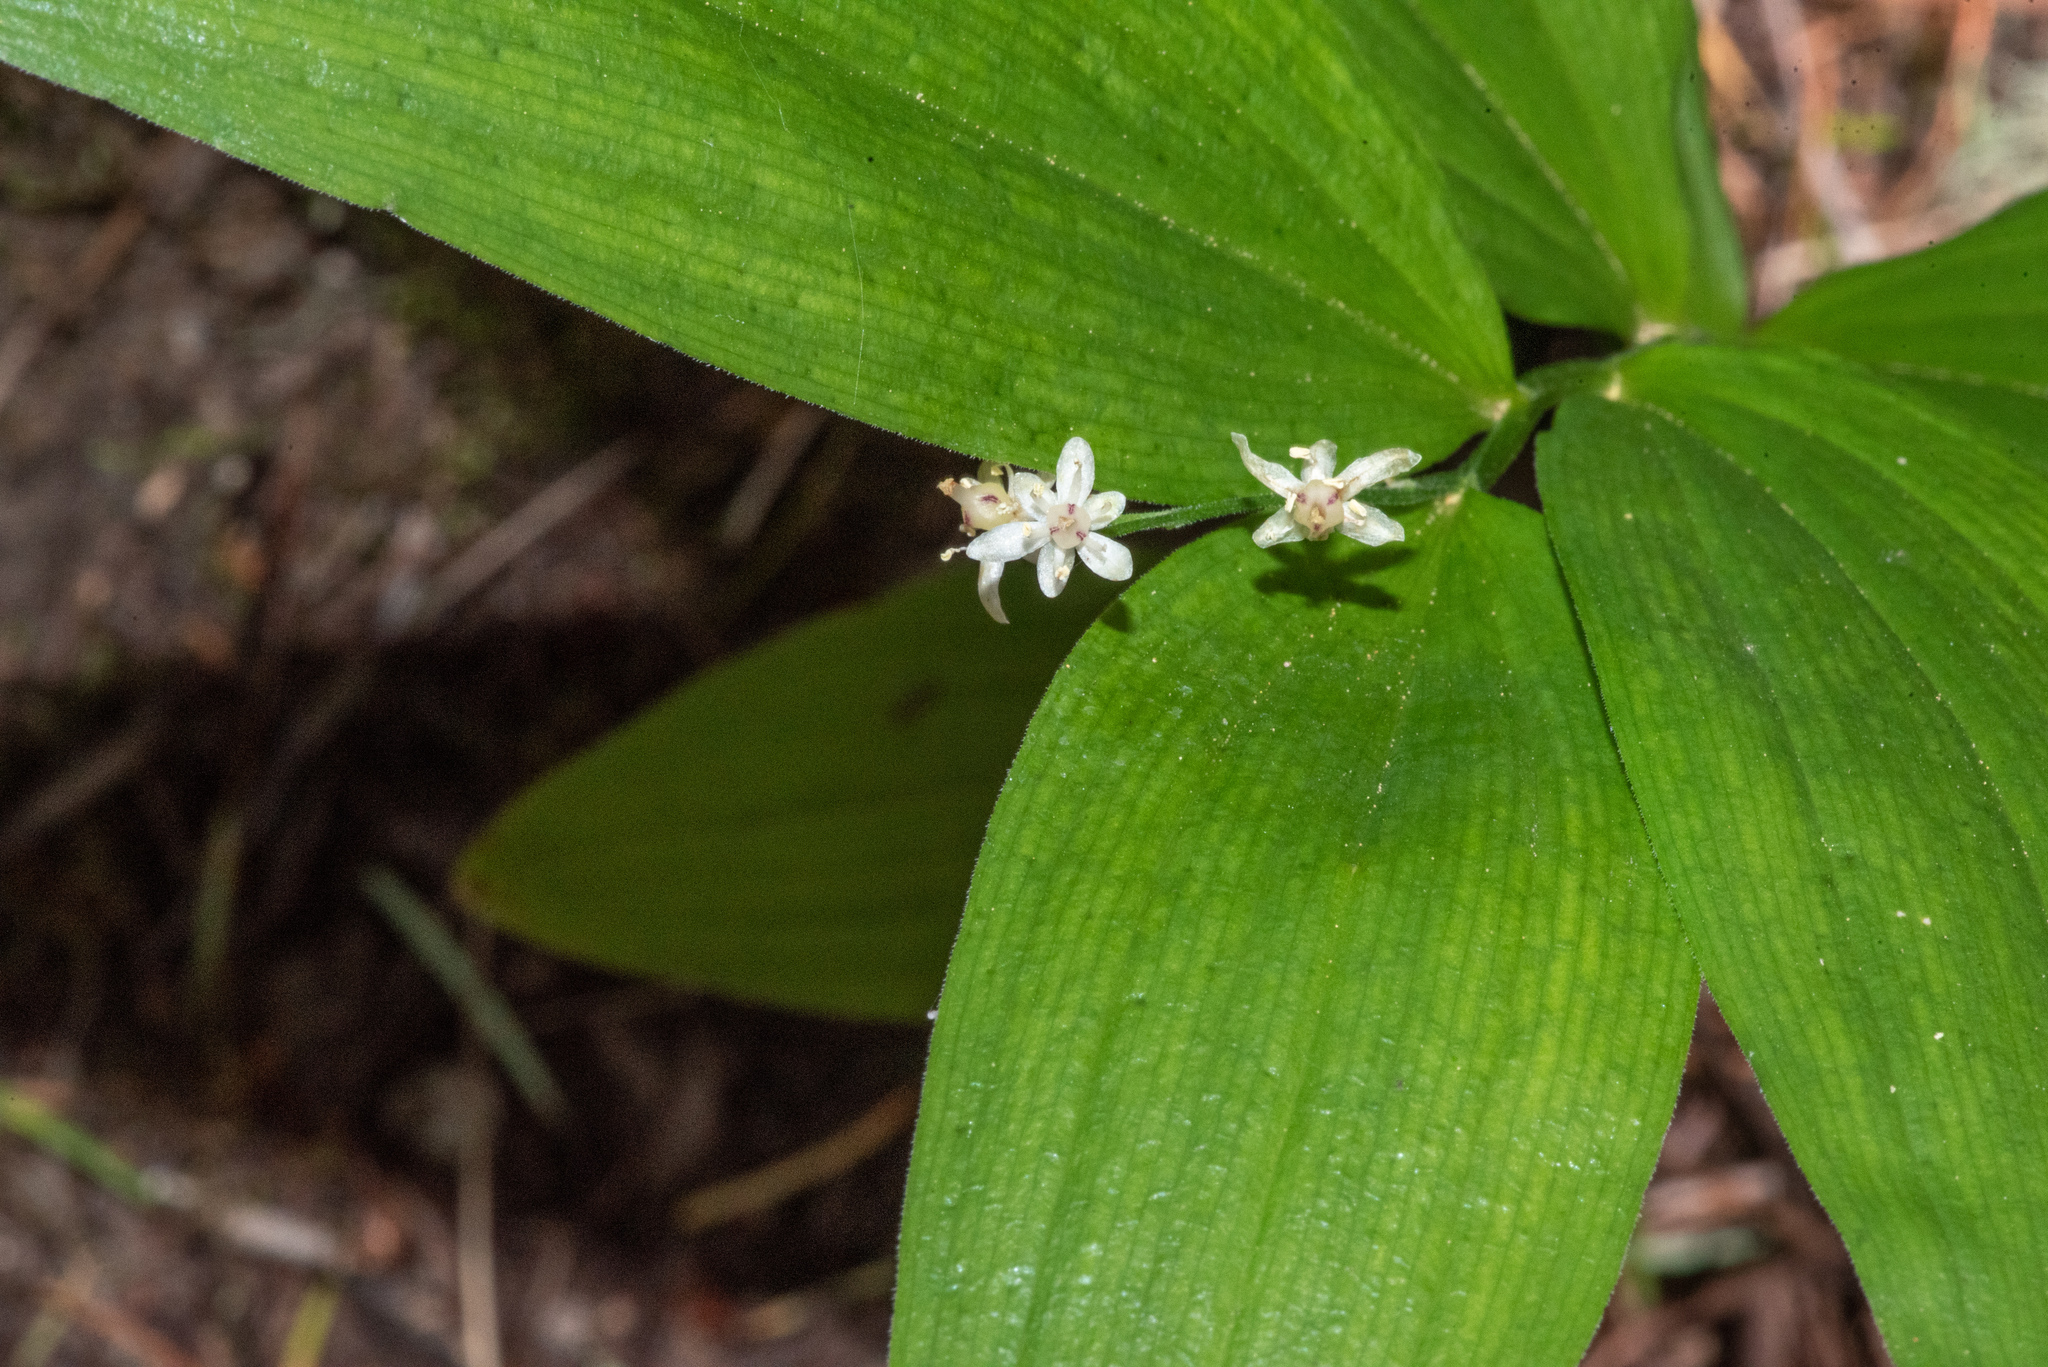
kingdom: Plantae
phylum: Tracheophyta
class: Liliopsida
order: Asparagales
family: Asparagaceae
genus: Maianthemum
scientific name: Maianthemum stellatum
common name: Little false solomon's seal
